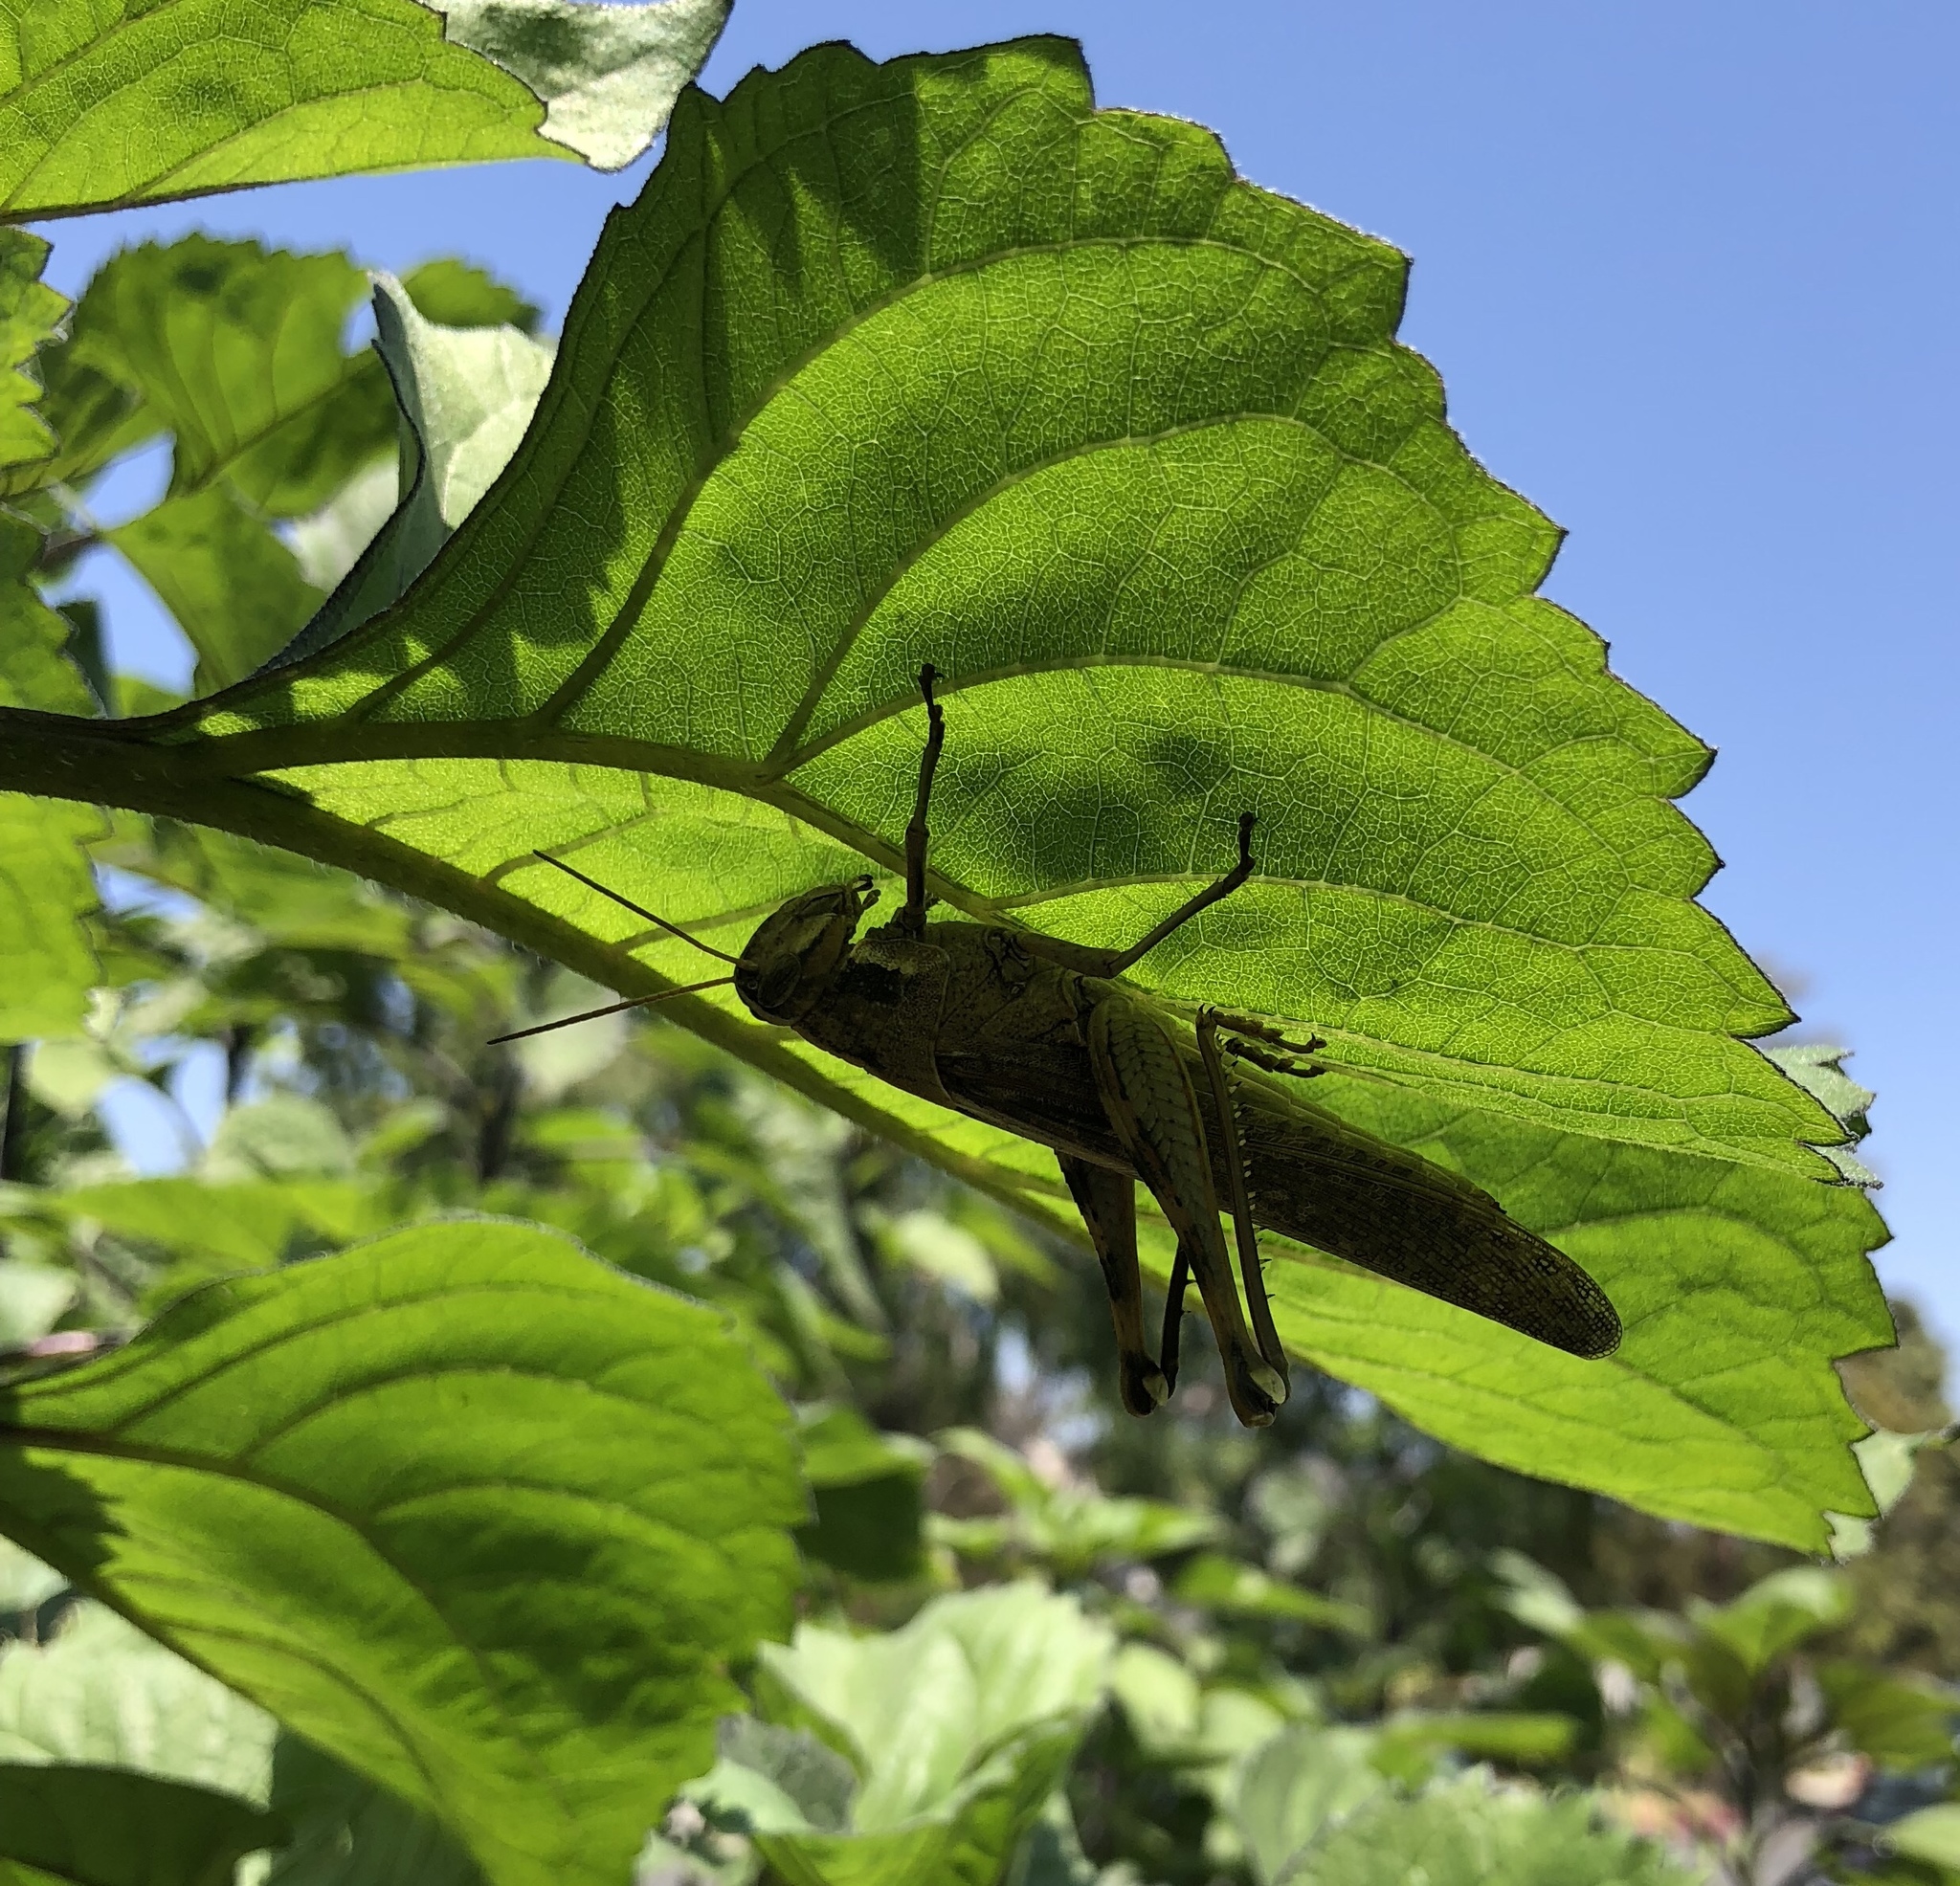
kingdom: Animalia
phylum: Arthropoda
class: Insecta
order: Orthoptera
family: Acrididae
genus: Schistocerca
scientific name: Schistocerca nitens
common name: Vagrant grasshopper
